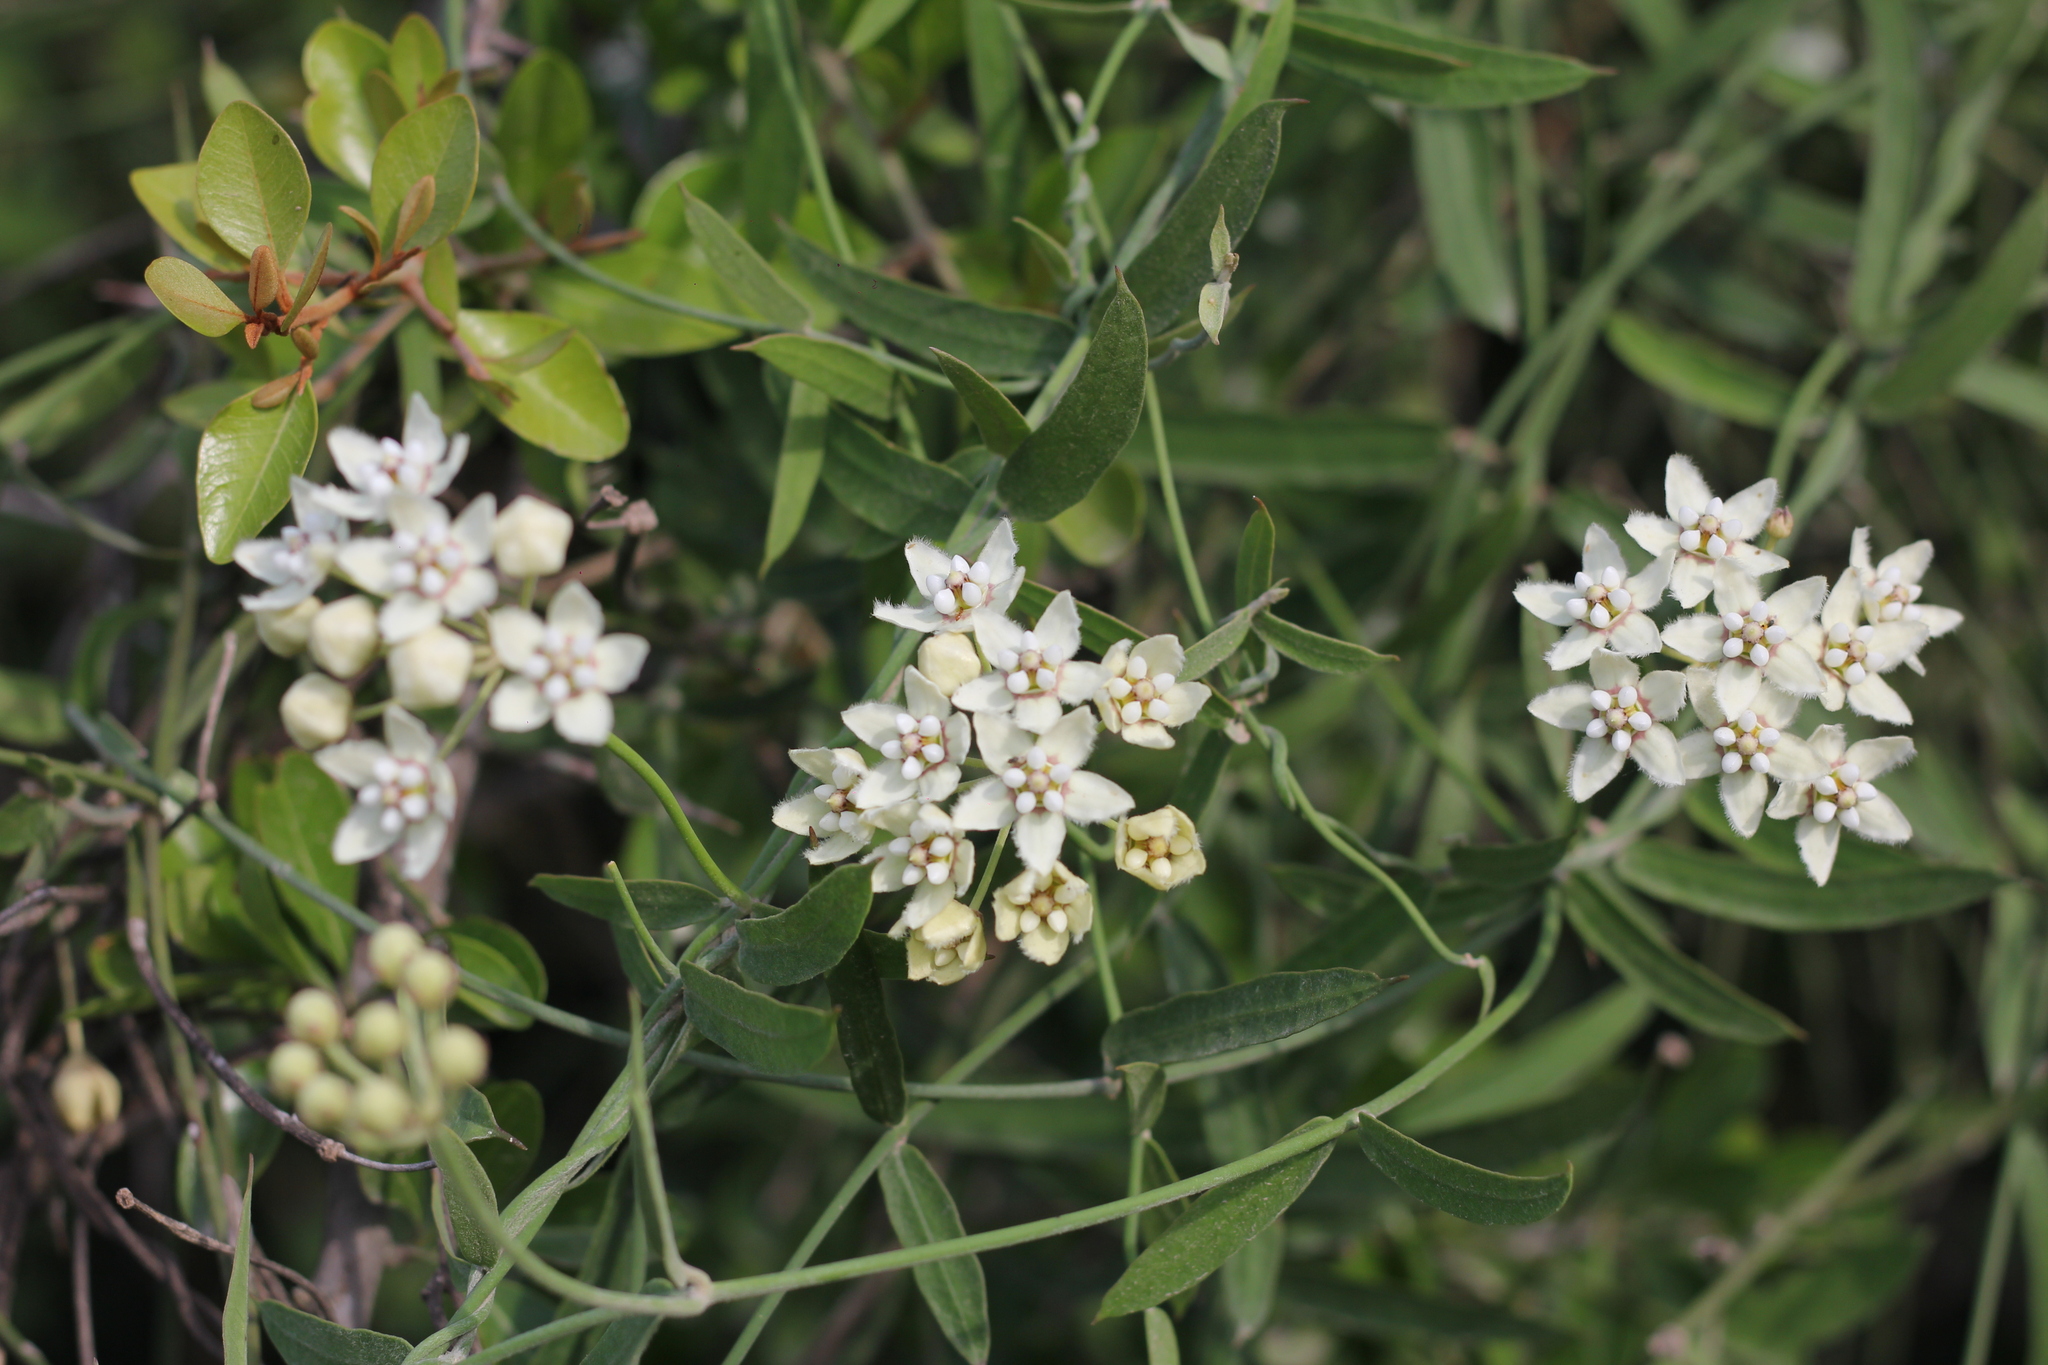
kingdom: Plantae
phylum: Tracheophyta
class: Magnoliopsida
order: Gentianales
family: Apocynaceae
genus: Funastrum
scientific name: Funastrum clausum
